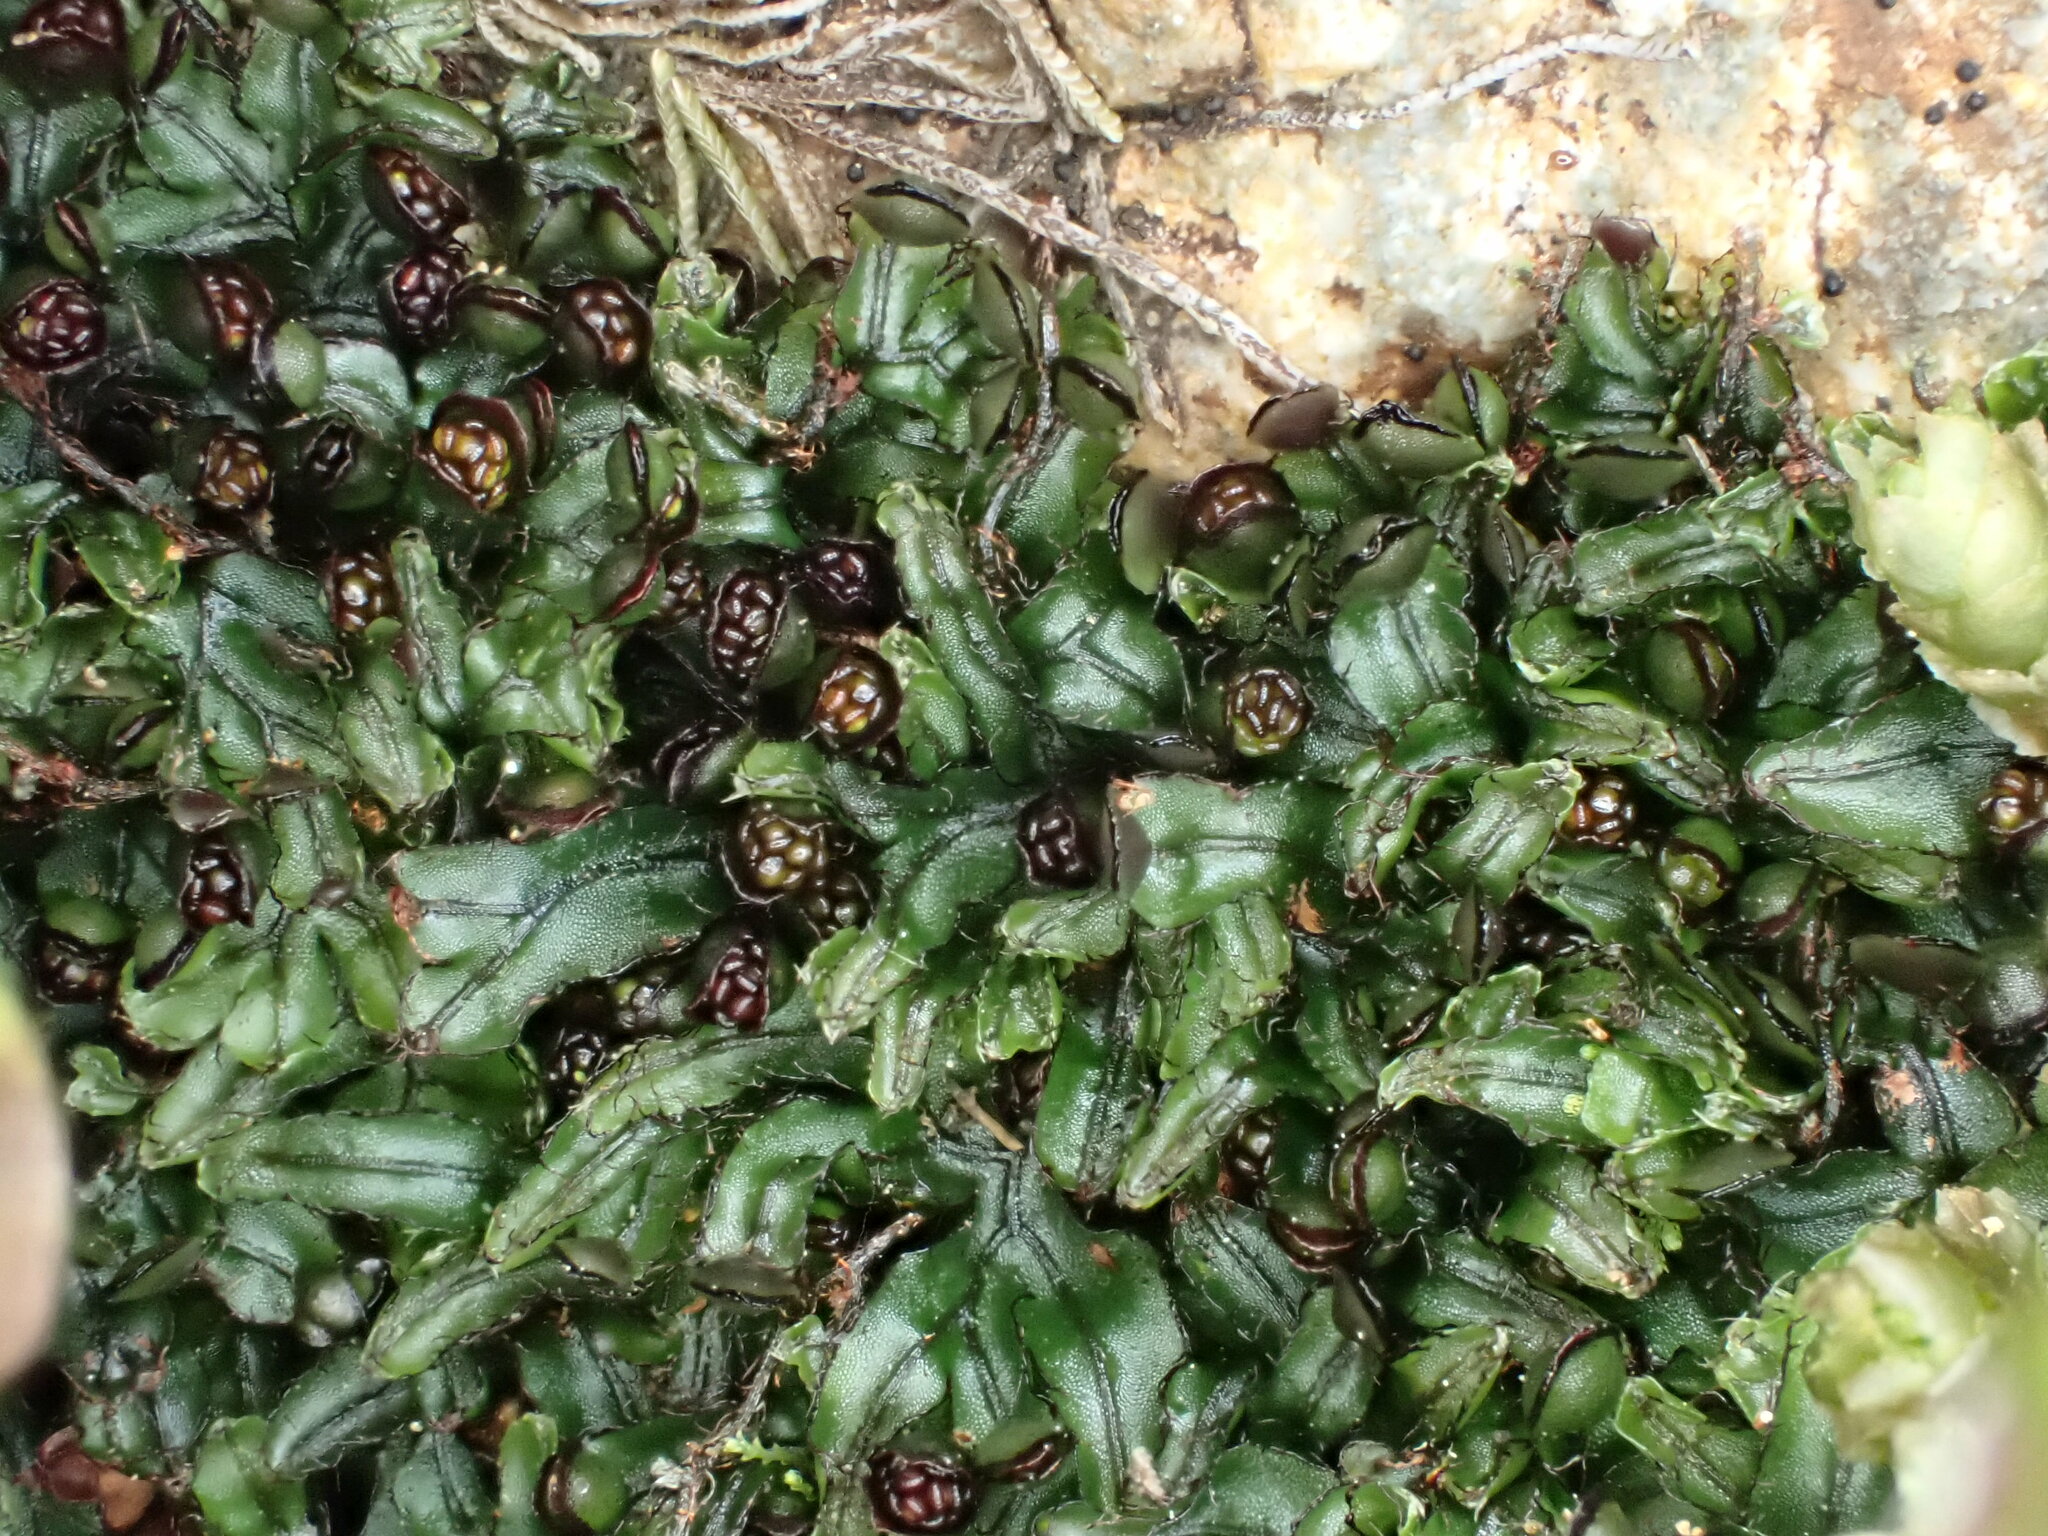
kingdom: Plantae
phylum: Tracheophyta
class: Polypodiopsida
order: Hymenophyllales
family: Hymenophyllaceae
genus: Hymenophyllum
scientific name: Hymenophyllum armstrongii
